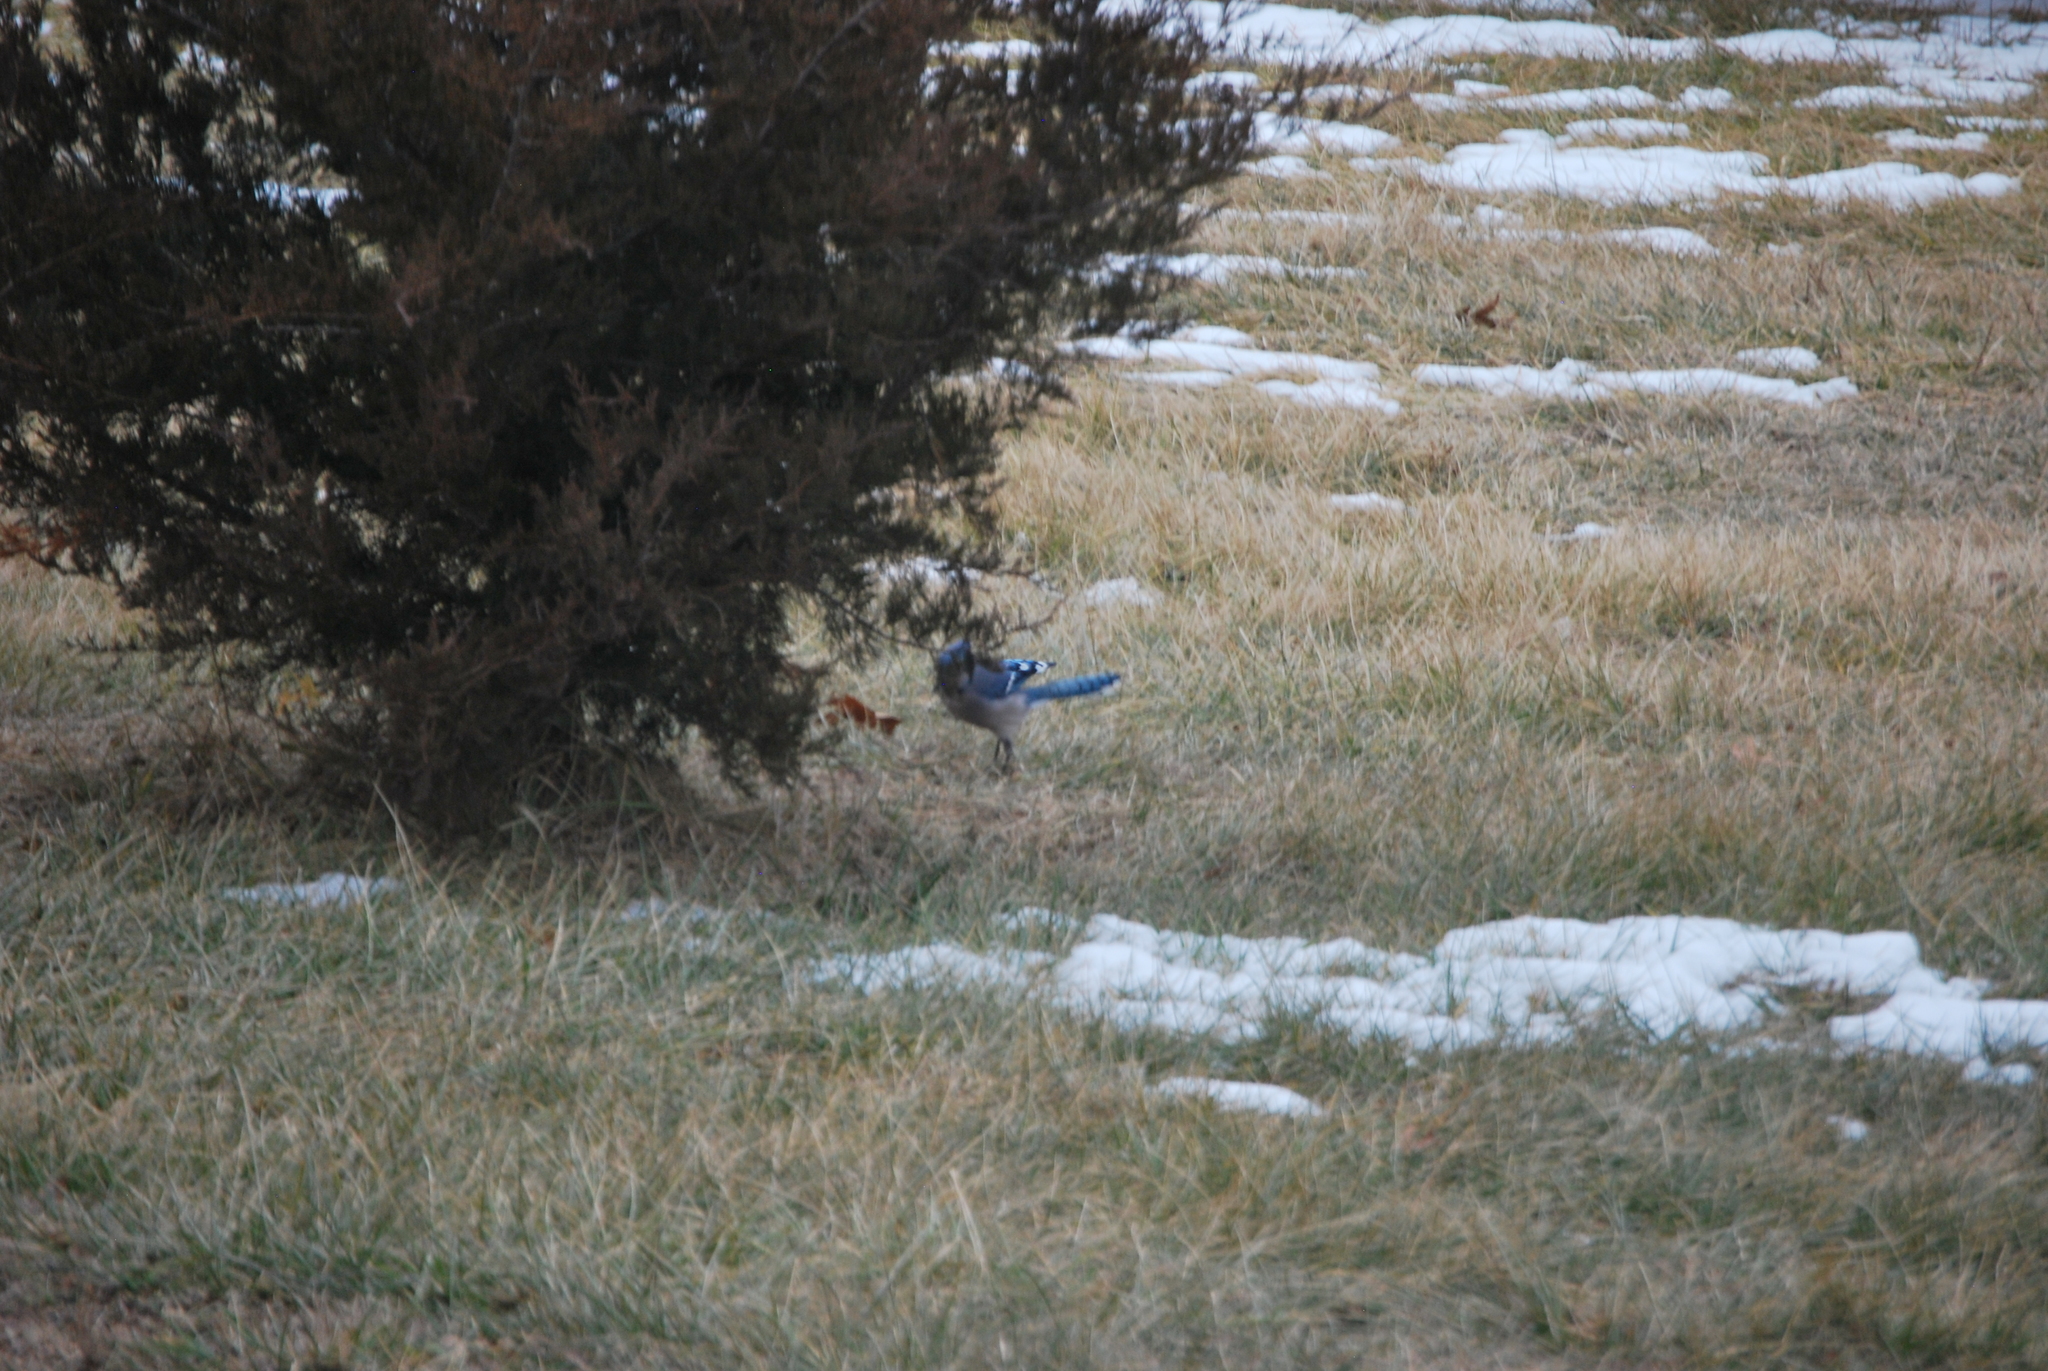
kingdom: Animalia
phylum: Chordata
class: Aves
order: Passeriformes
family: Corvidae
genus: Cyanocitta
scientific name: Cyanocitta cristata
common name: Blue jay
